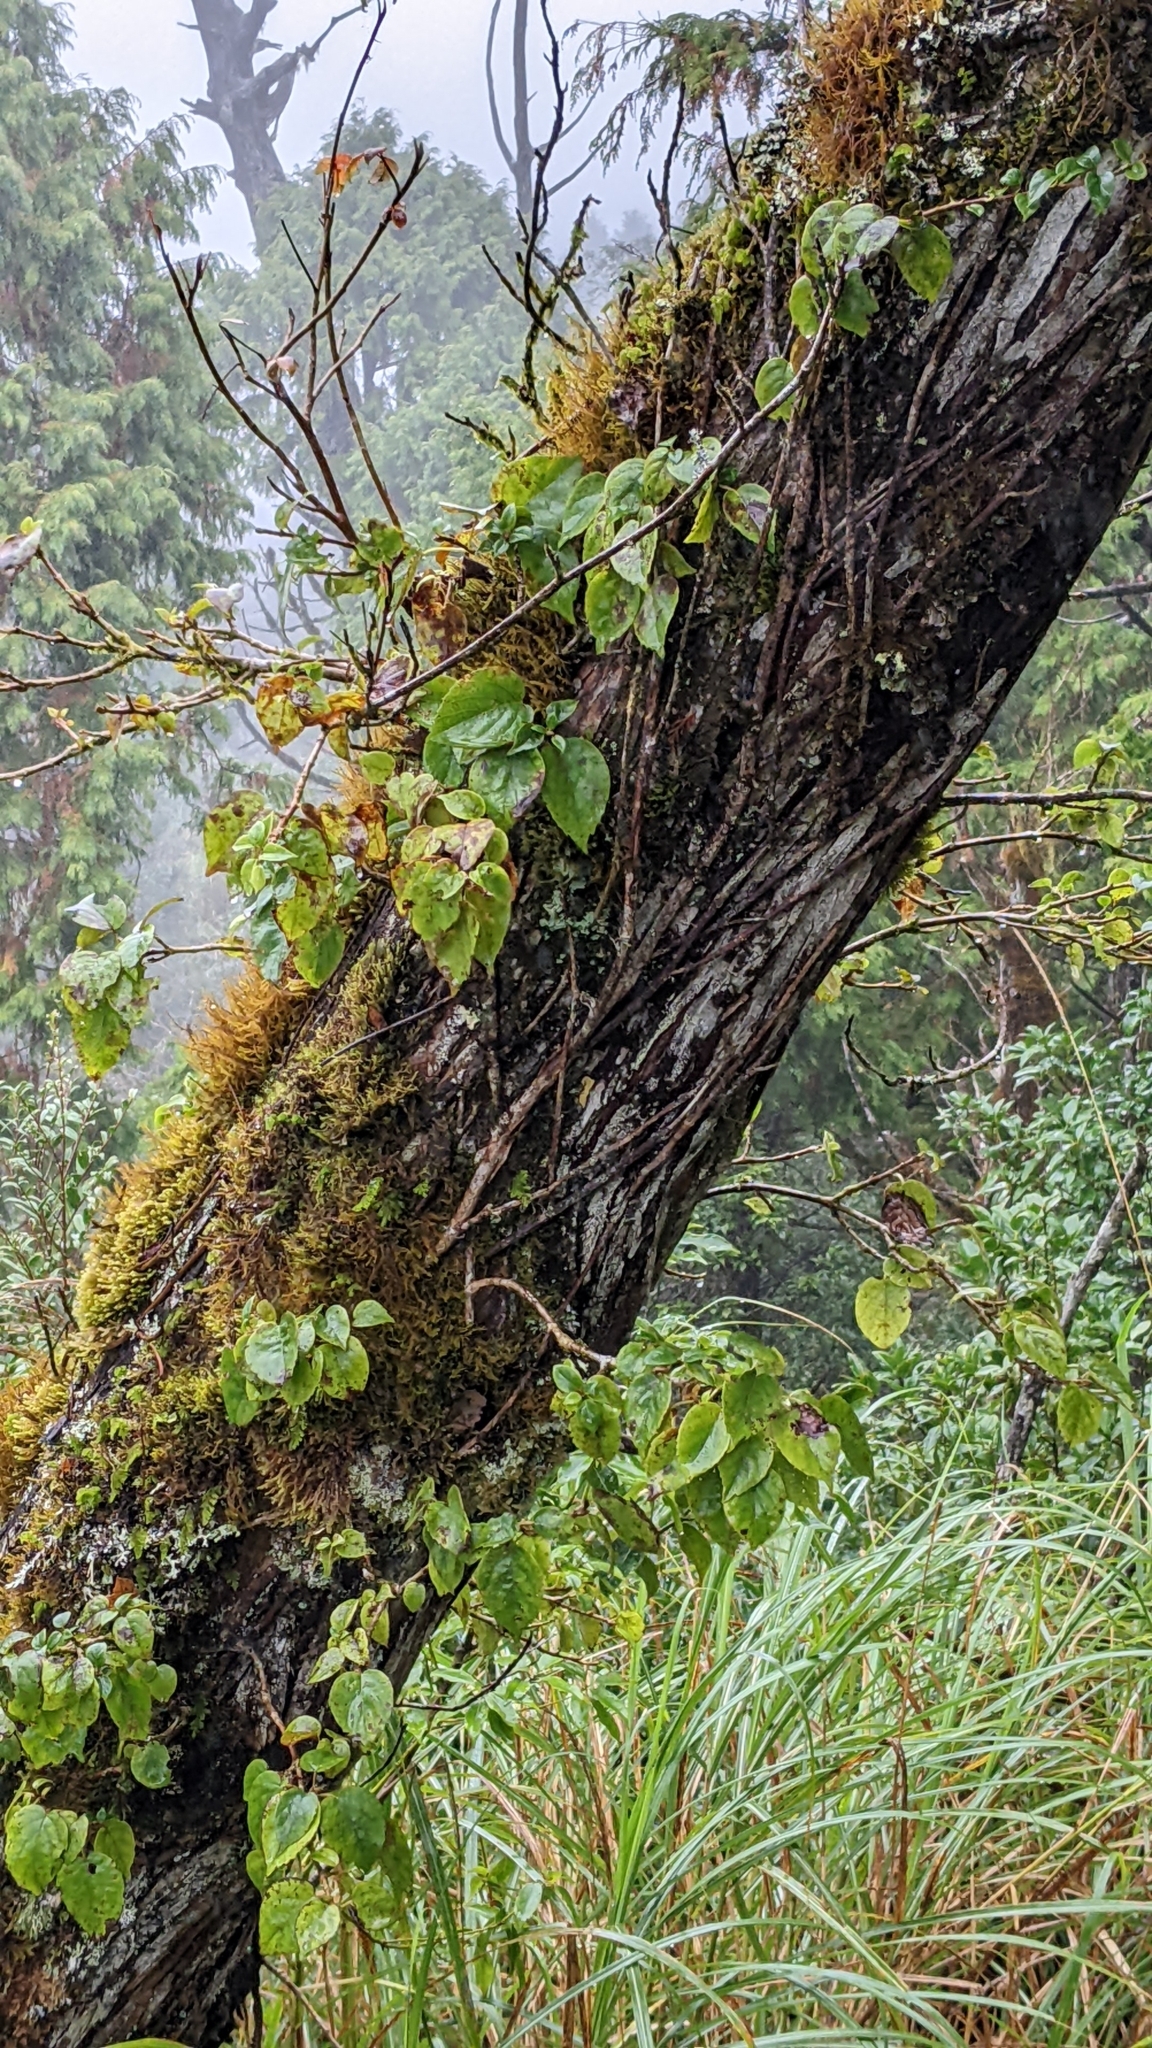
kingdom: Plantae
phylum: Tracheophyta
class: Magnoliopsida
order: Cornales
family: Hydrangeaceae
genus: Hydrangea
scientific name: Hydrangea fauriei
